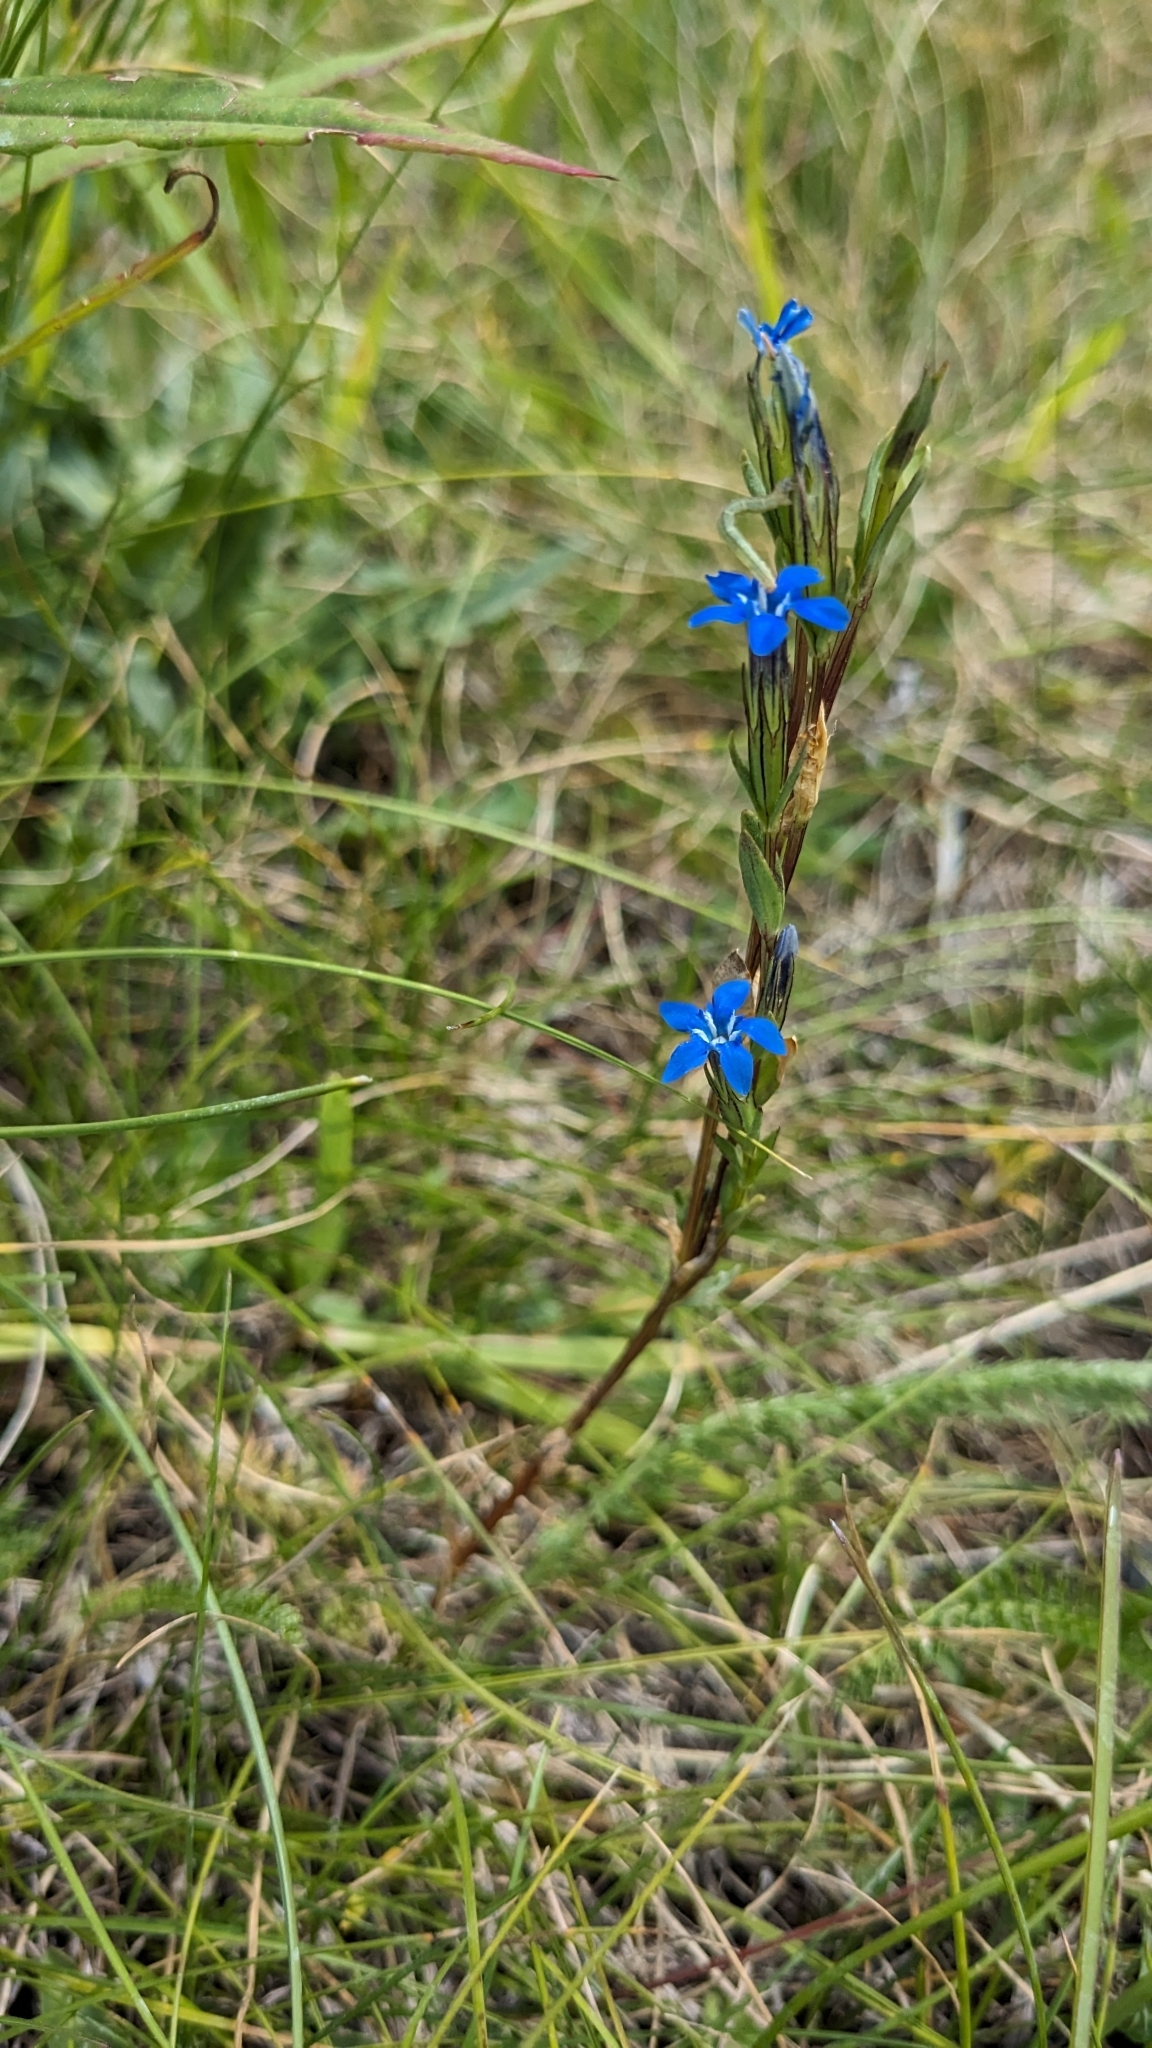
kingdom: Plantae
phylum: Tracheophyta
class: Magnoliopsida
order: Gentianales
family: Gentianaceae
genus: Gentiana
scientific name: Gentiana nivalis
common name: Alpine gentian
